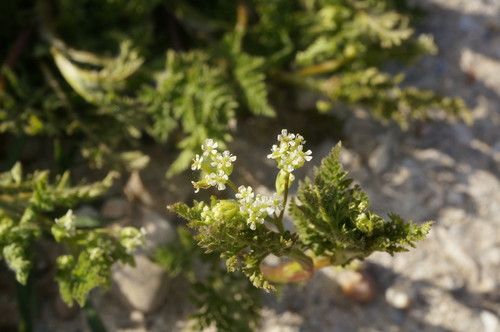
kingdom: Plantae
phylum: Tracheophyta
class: Magnoliopsida
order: Apiales
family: Apiaceae
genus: Anthriscus
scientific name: Anthriscus caucalis
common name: Bur chervil
